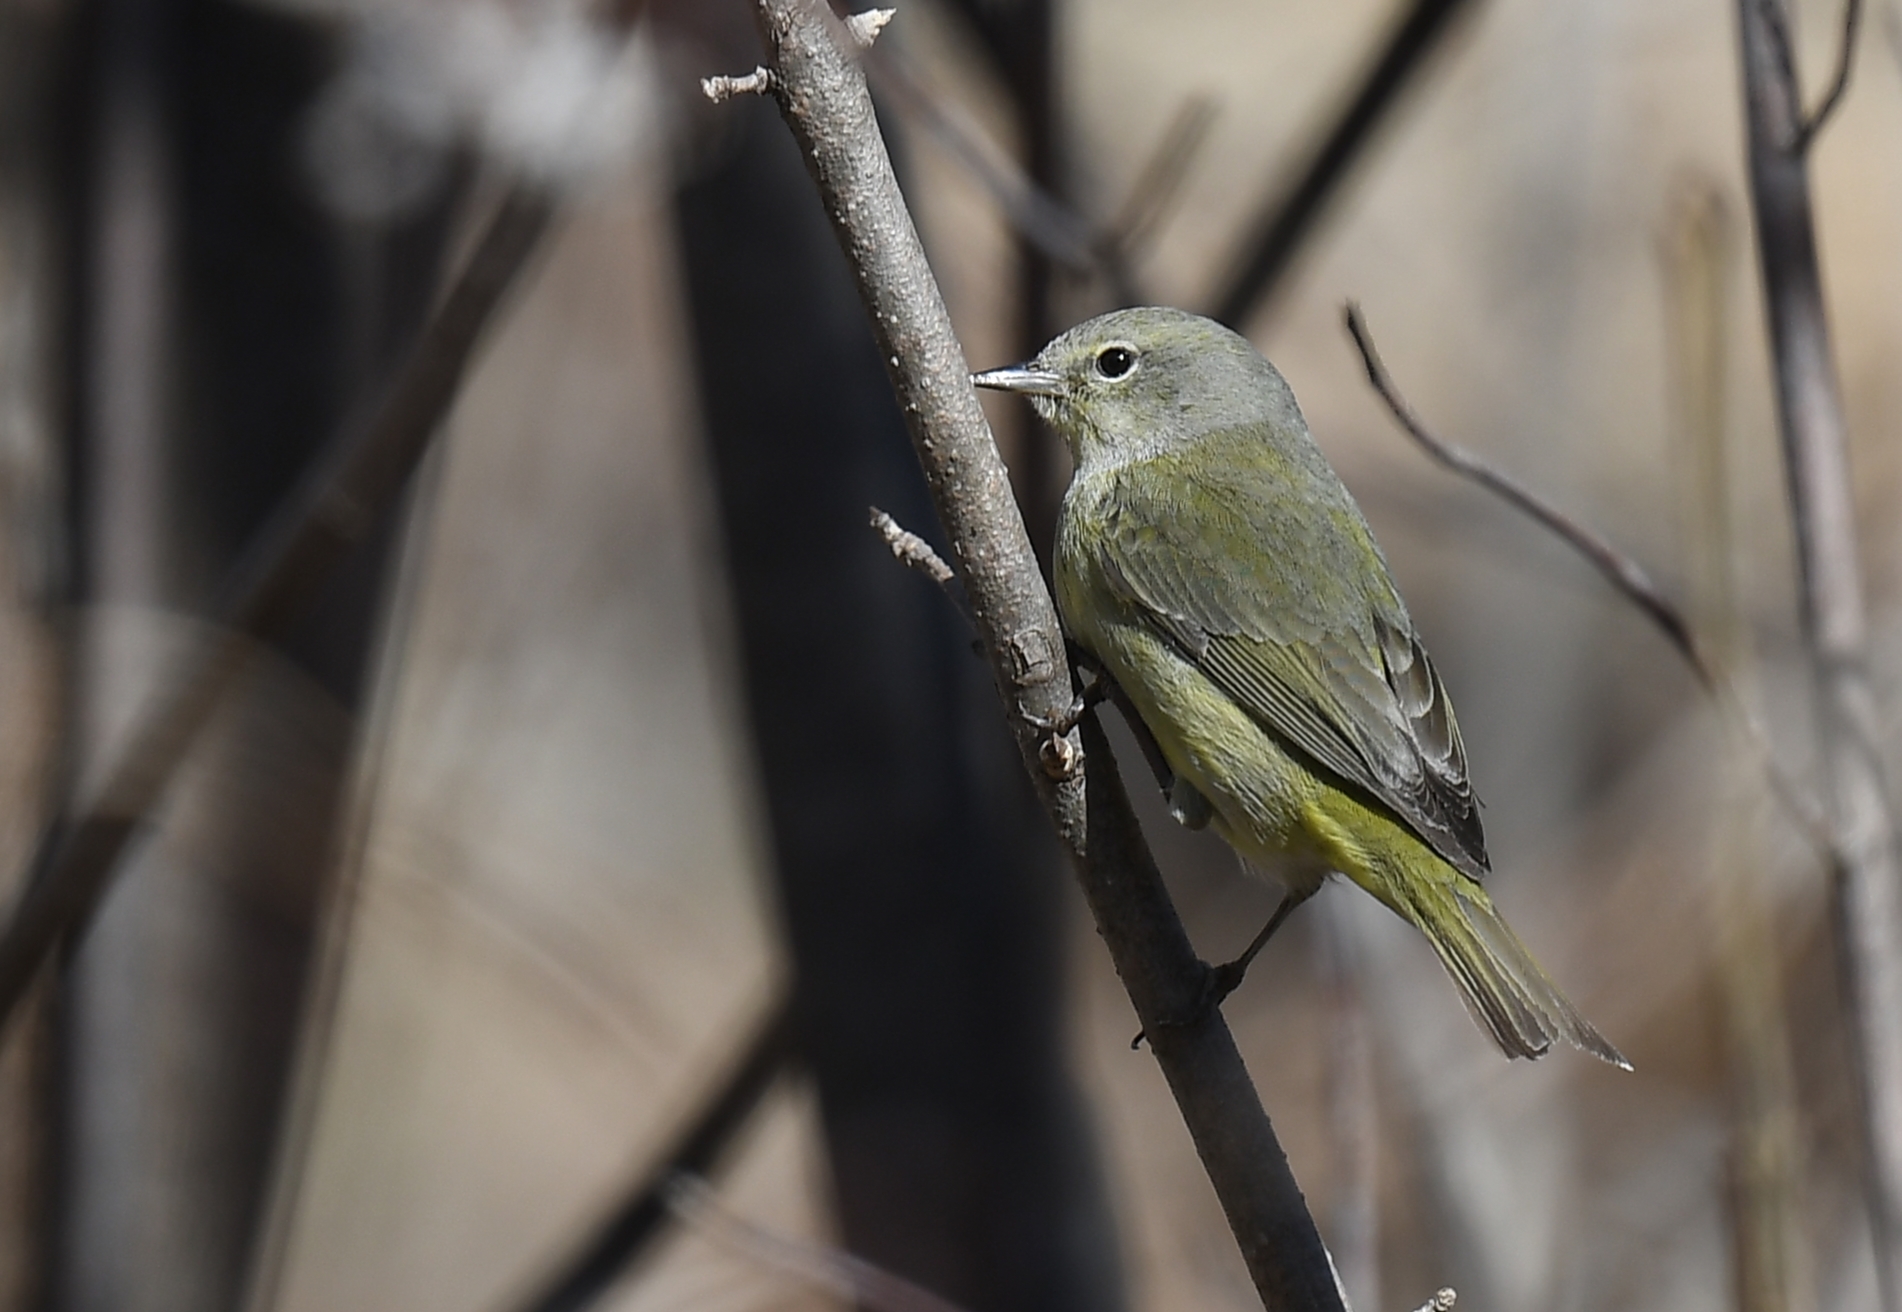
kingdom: Animalia
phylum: Chordata
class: Aves
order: Passeriformes
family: Parulidae
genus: Leiothlypis
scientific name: Leiothlypis celata
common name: Orange-crowned warbler
